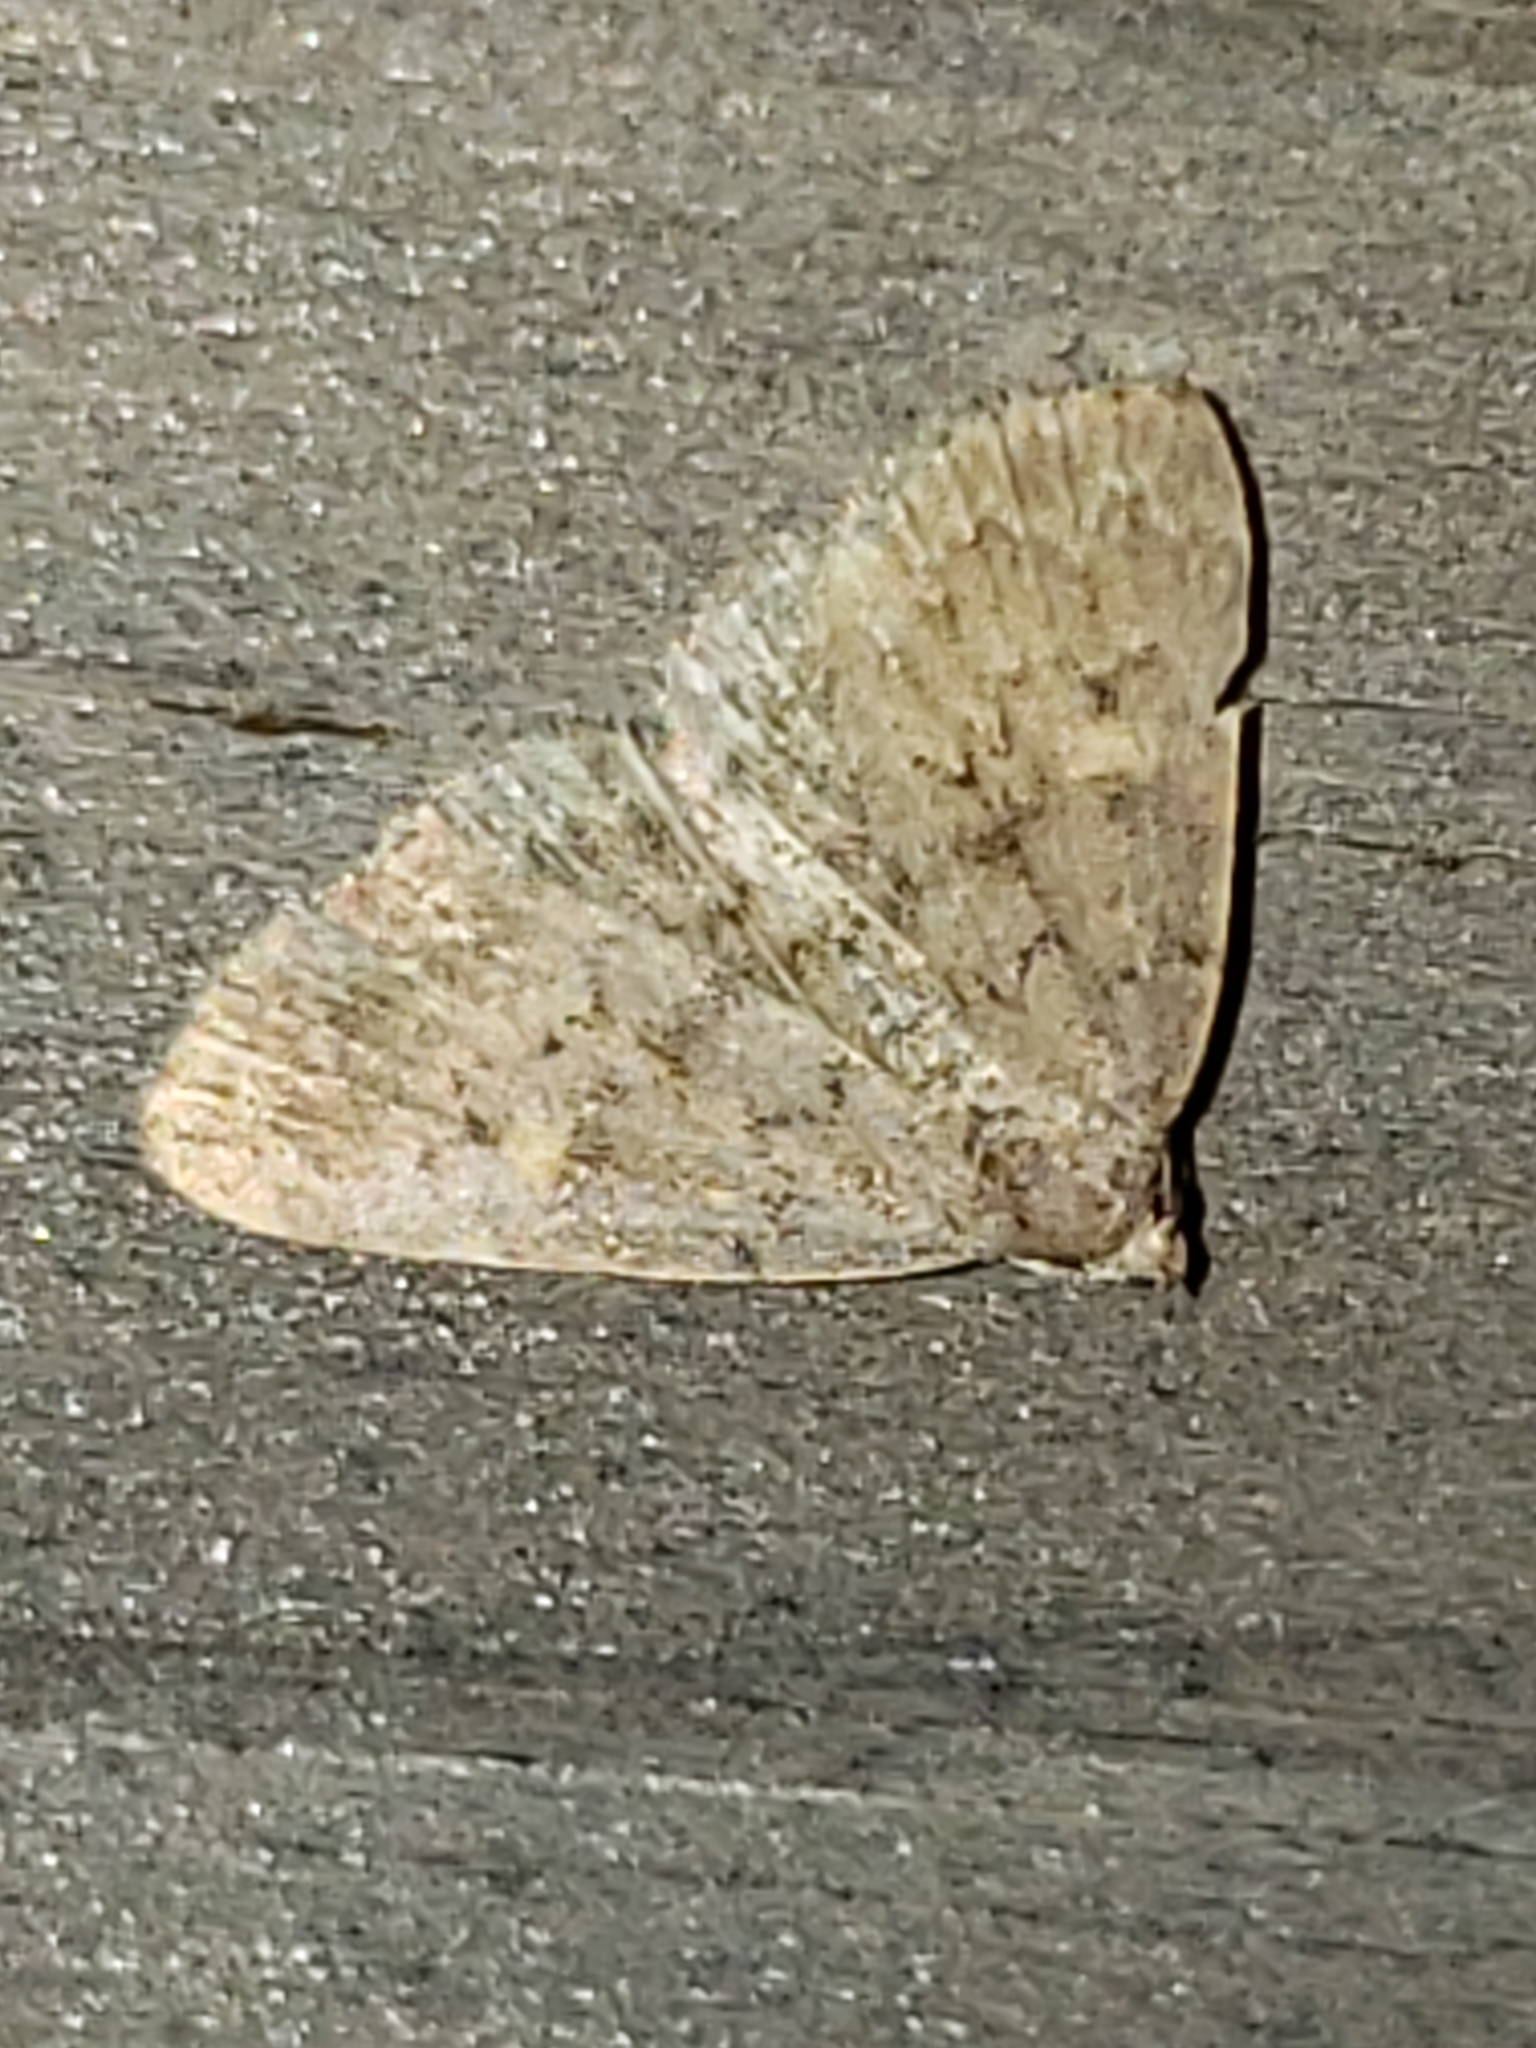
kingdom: Animalia
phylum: Arthropoda
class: Insecta
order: Lepidoptera
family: Erebidae
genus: Idia
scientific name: Idia aemula
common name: Common idia moth
